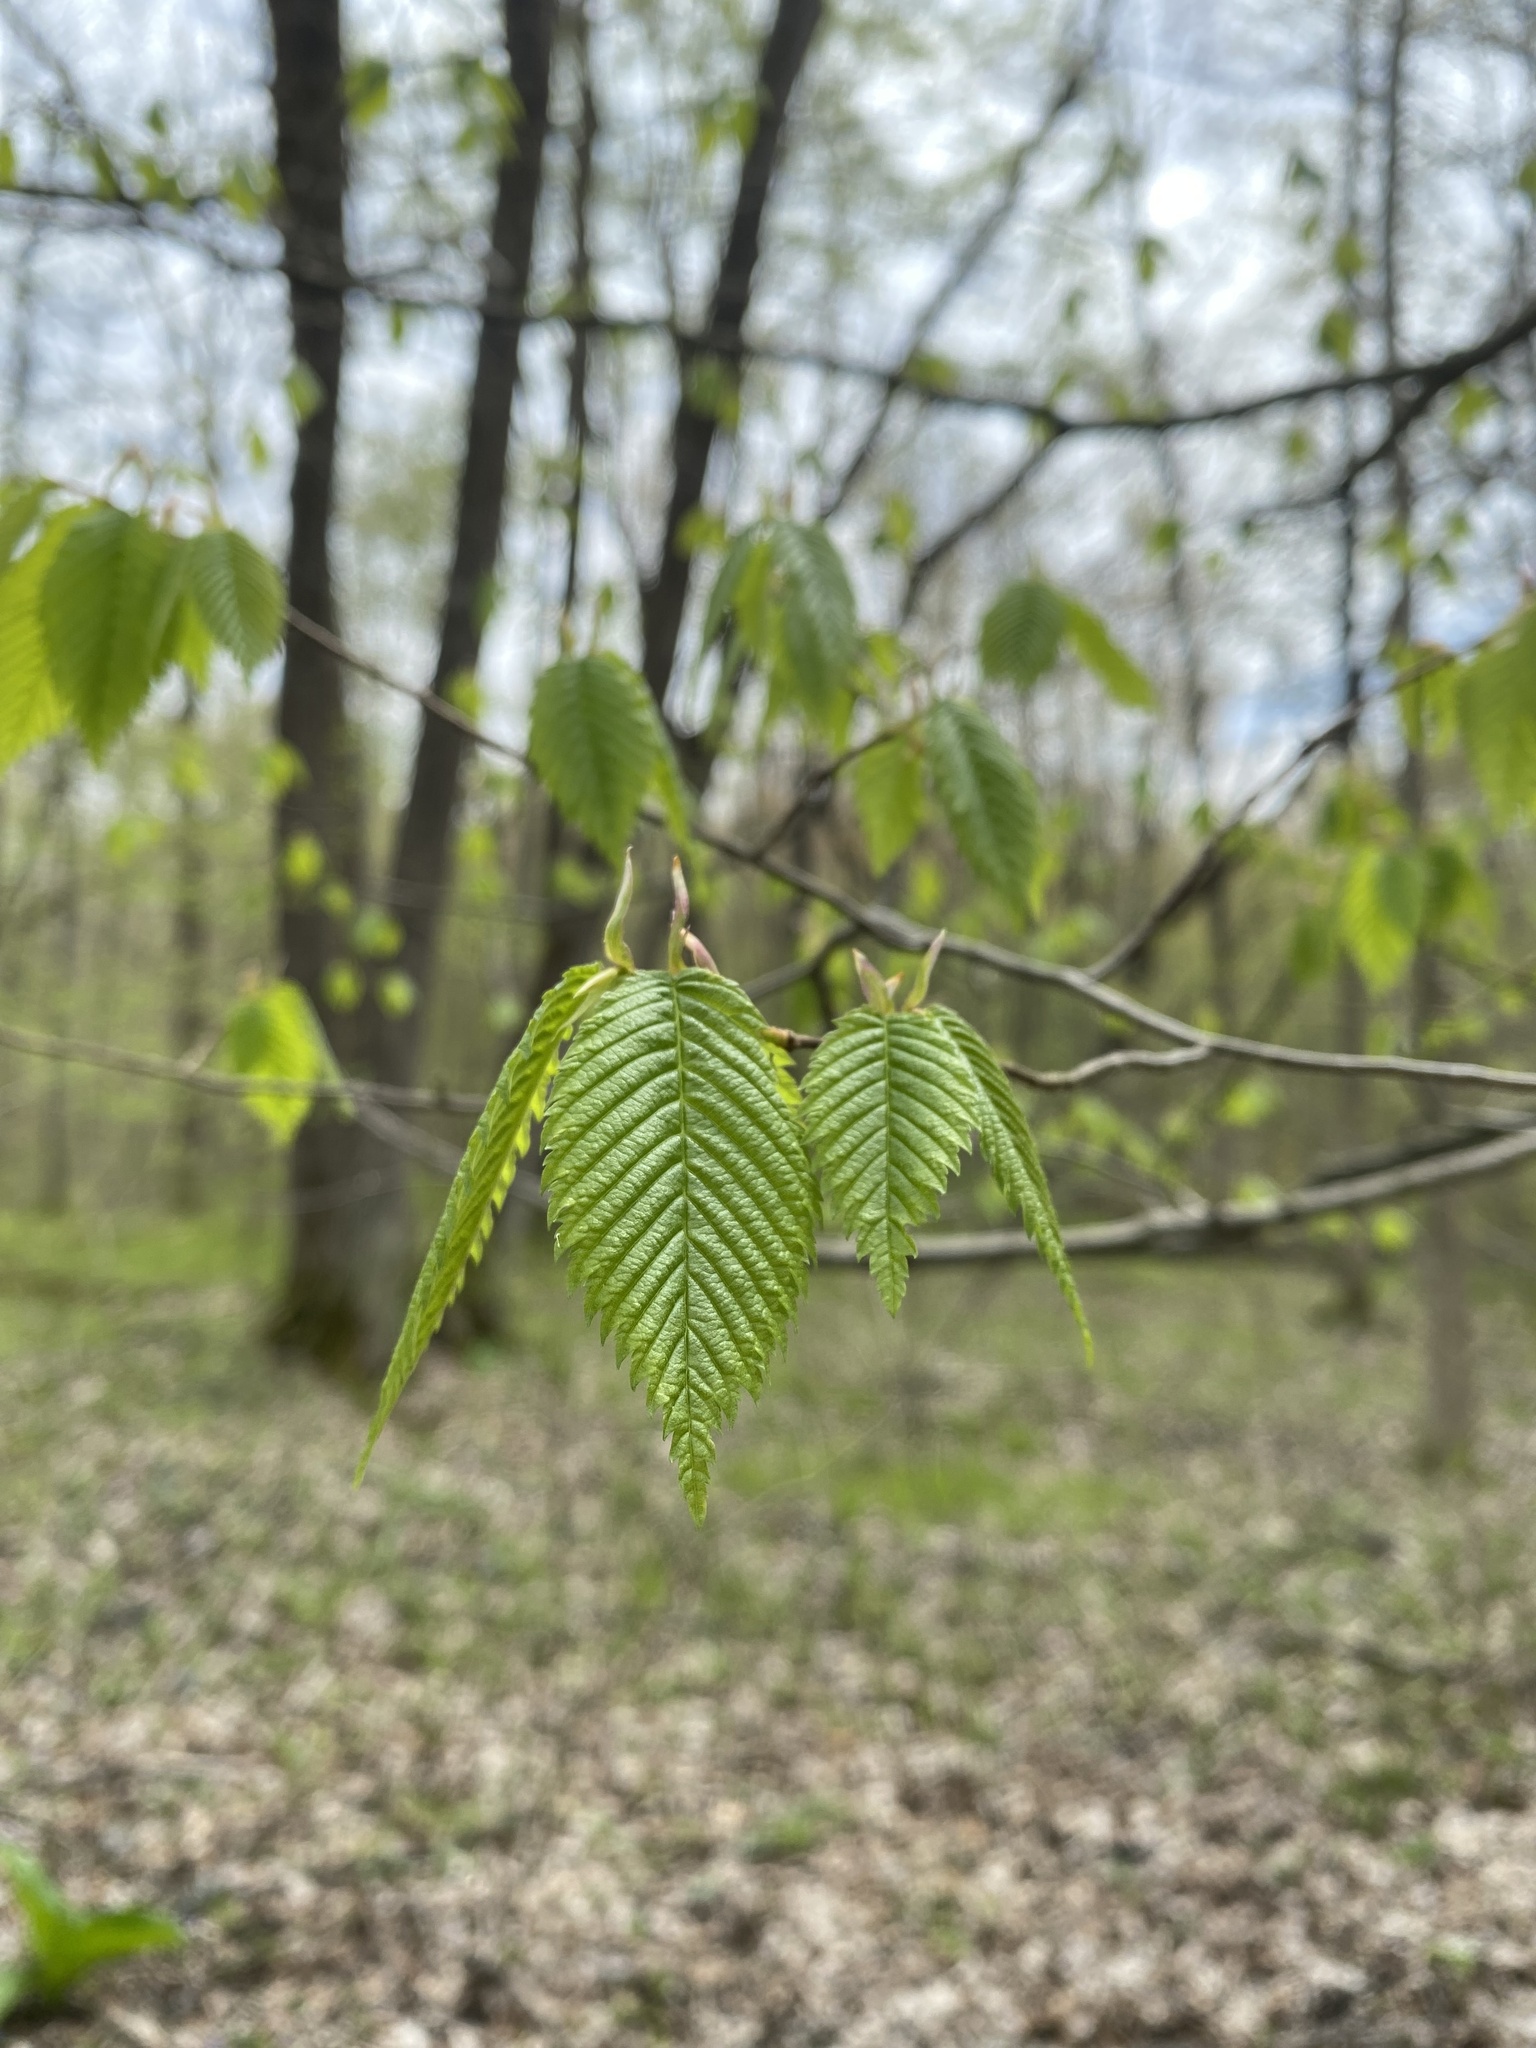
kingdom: Plantae
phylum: Tracheophyta
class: Magnoliopsida
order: Rosales
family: Ulmaceae
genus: Ulmus
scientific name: Ulmus americana
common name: American elm
